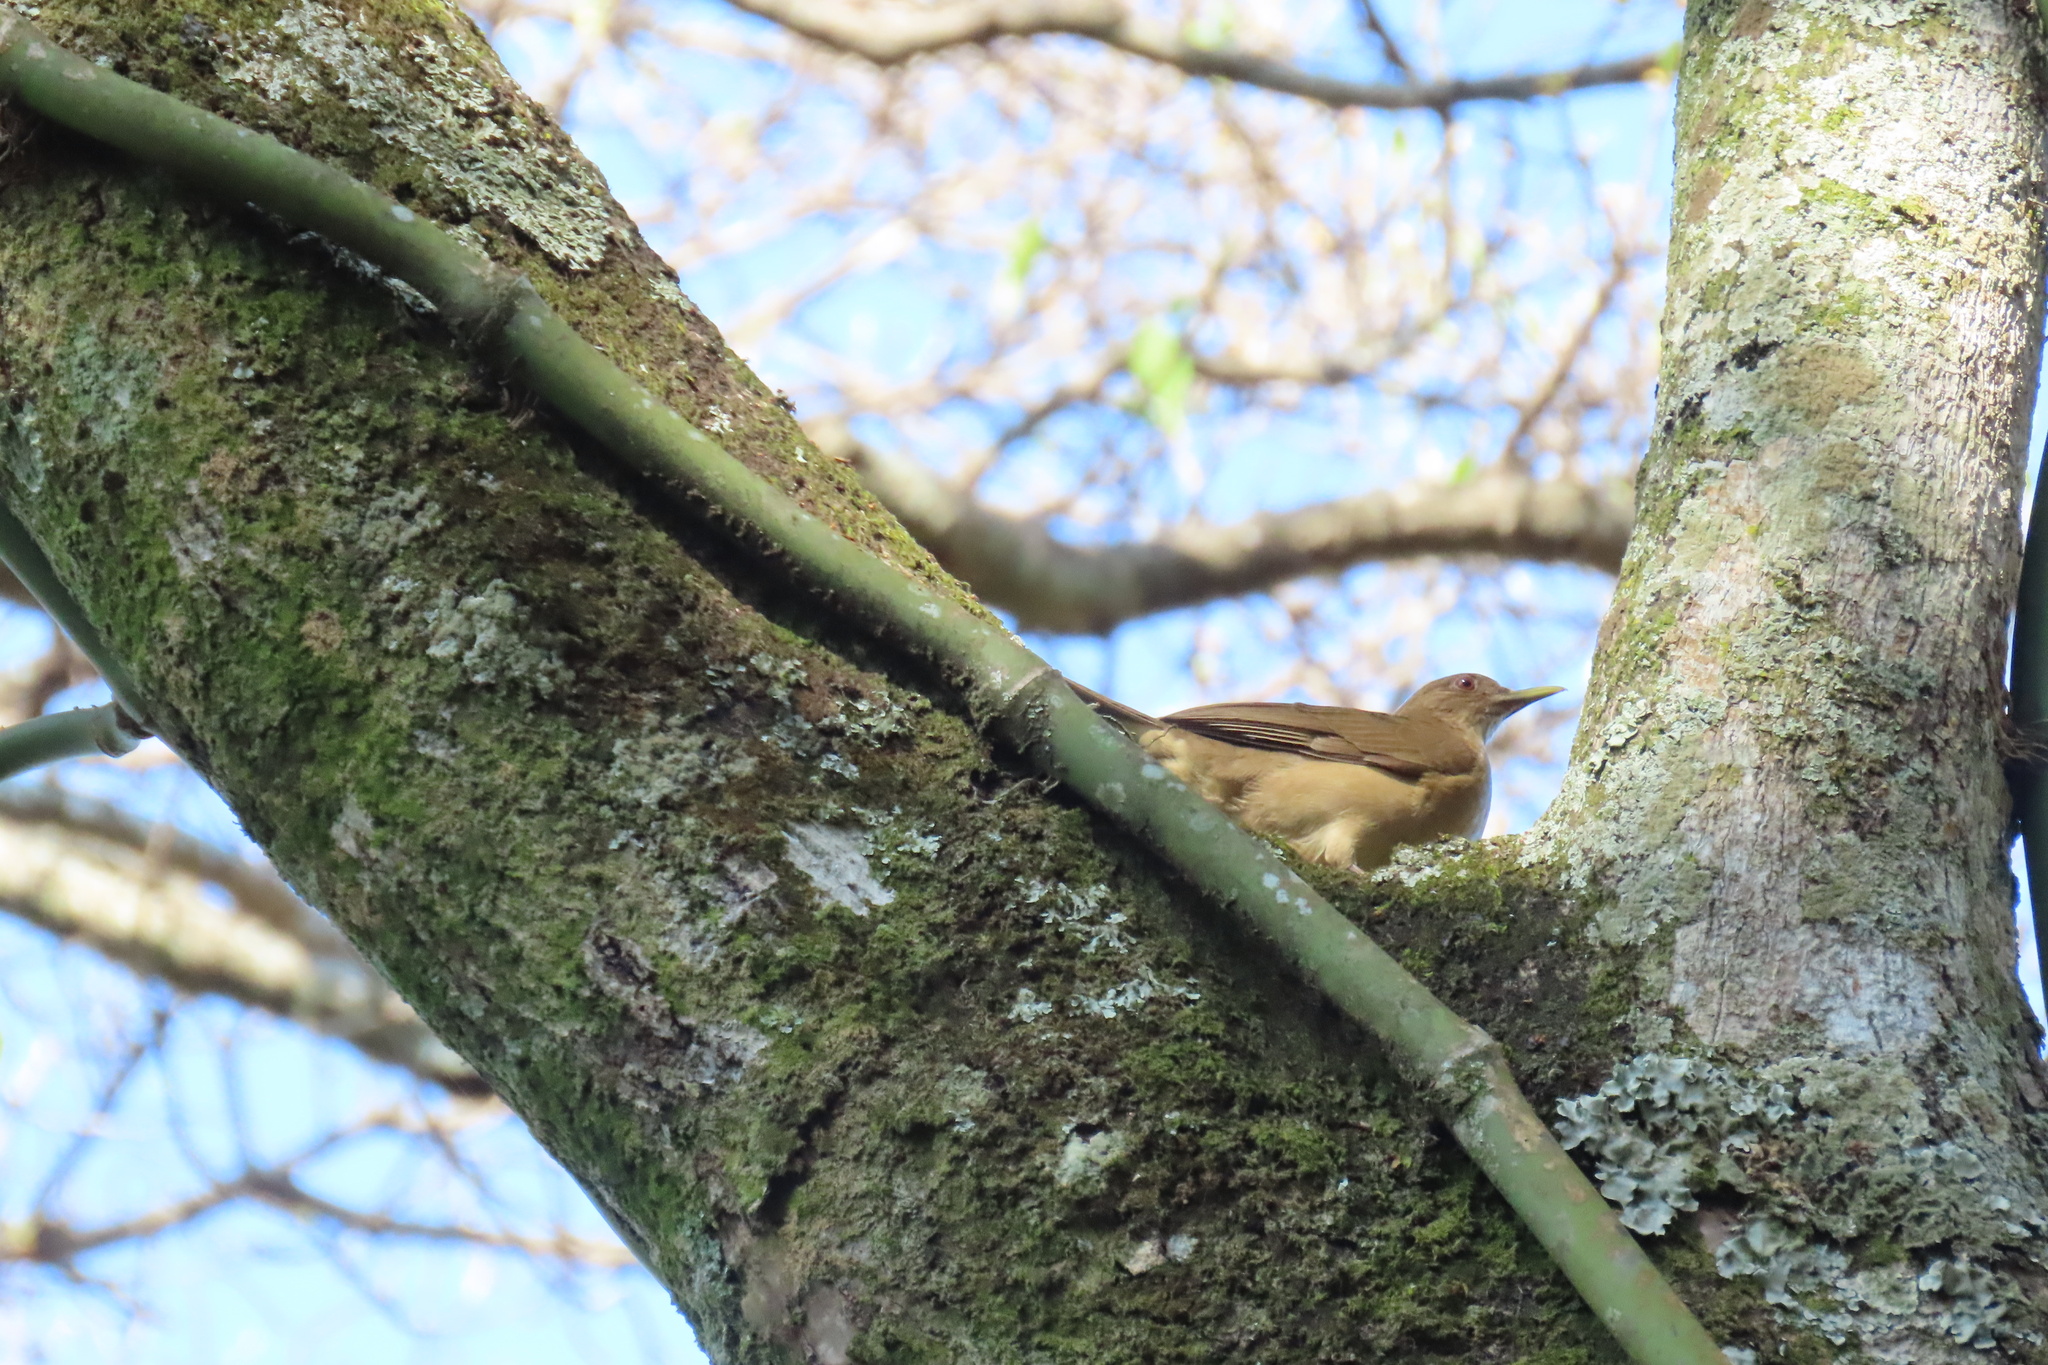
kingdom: Animalia
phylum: Chordata
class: Aves
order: Passeriformes
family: Turdidae
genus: Turdus
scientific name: Turdus grayi
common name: Clay-colored thrush
